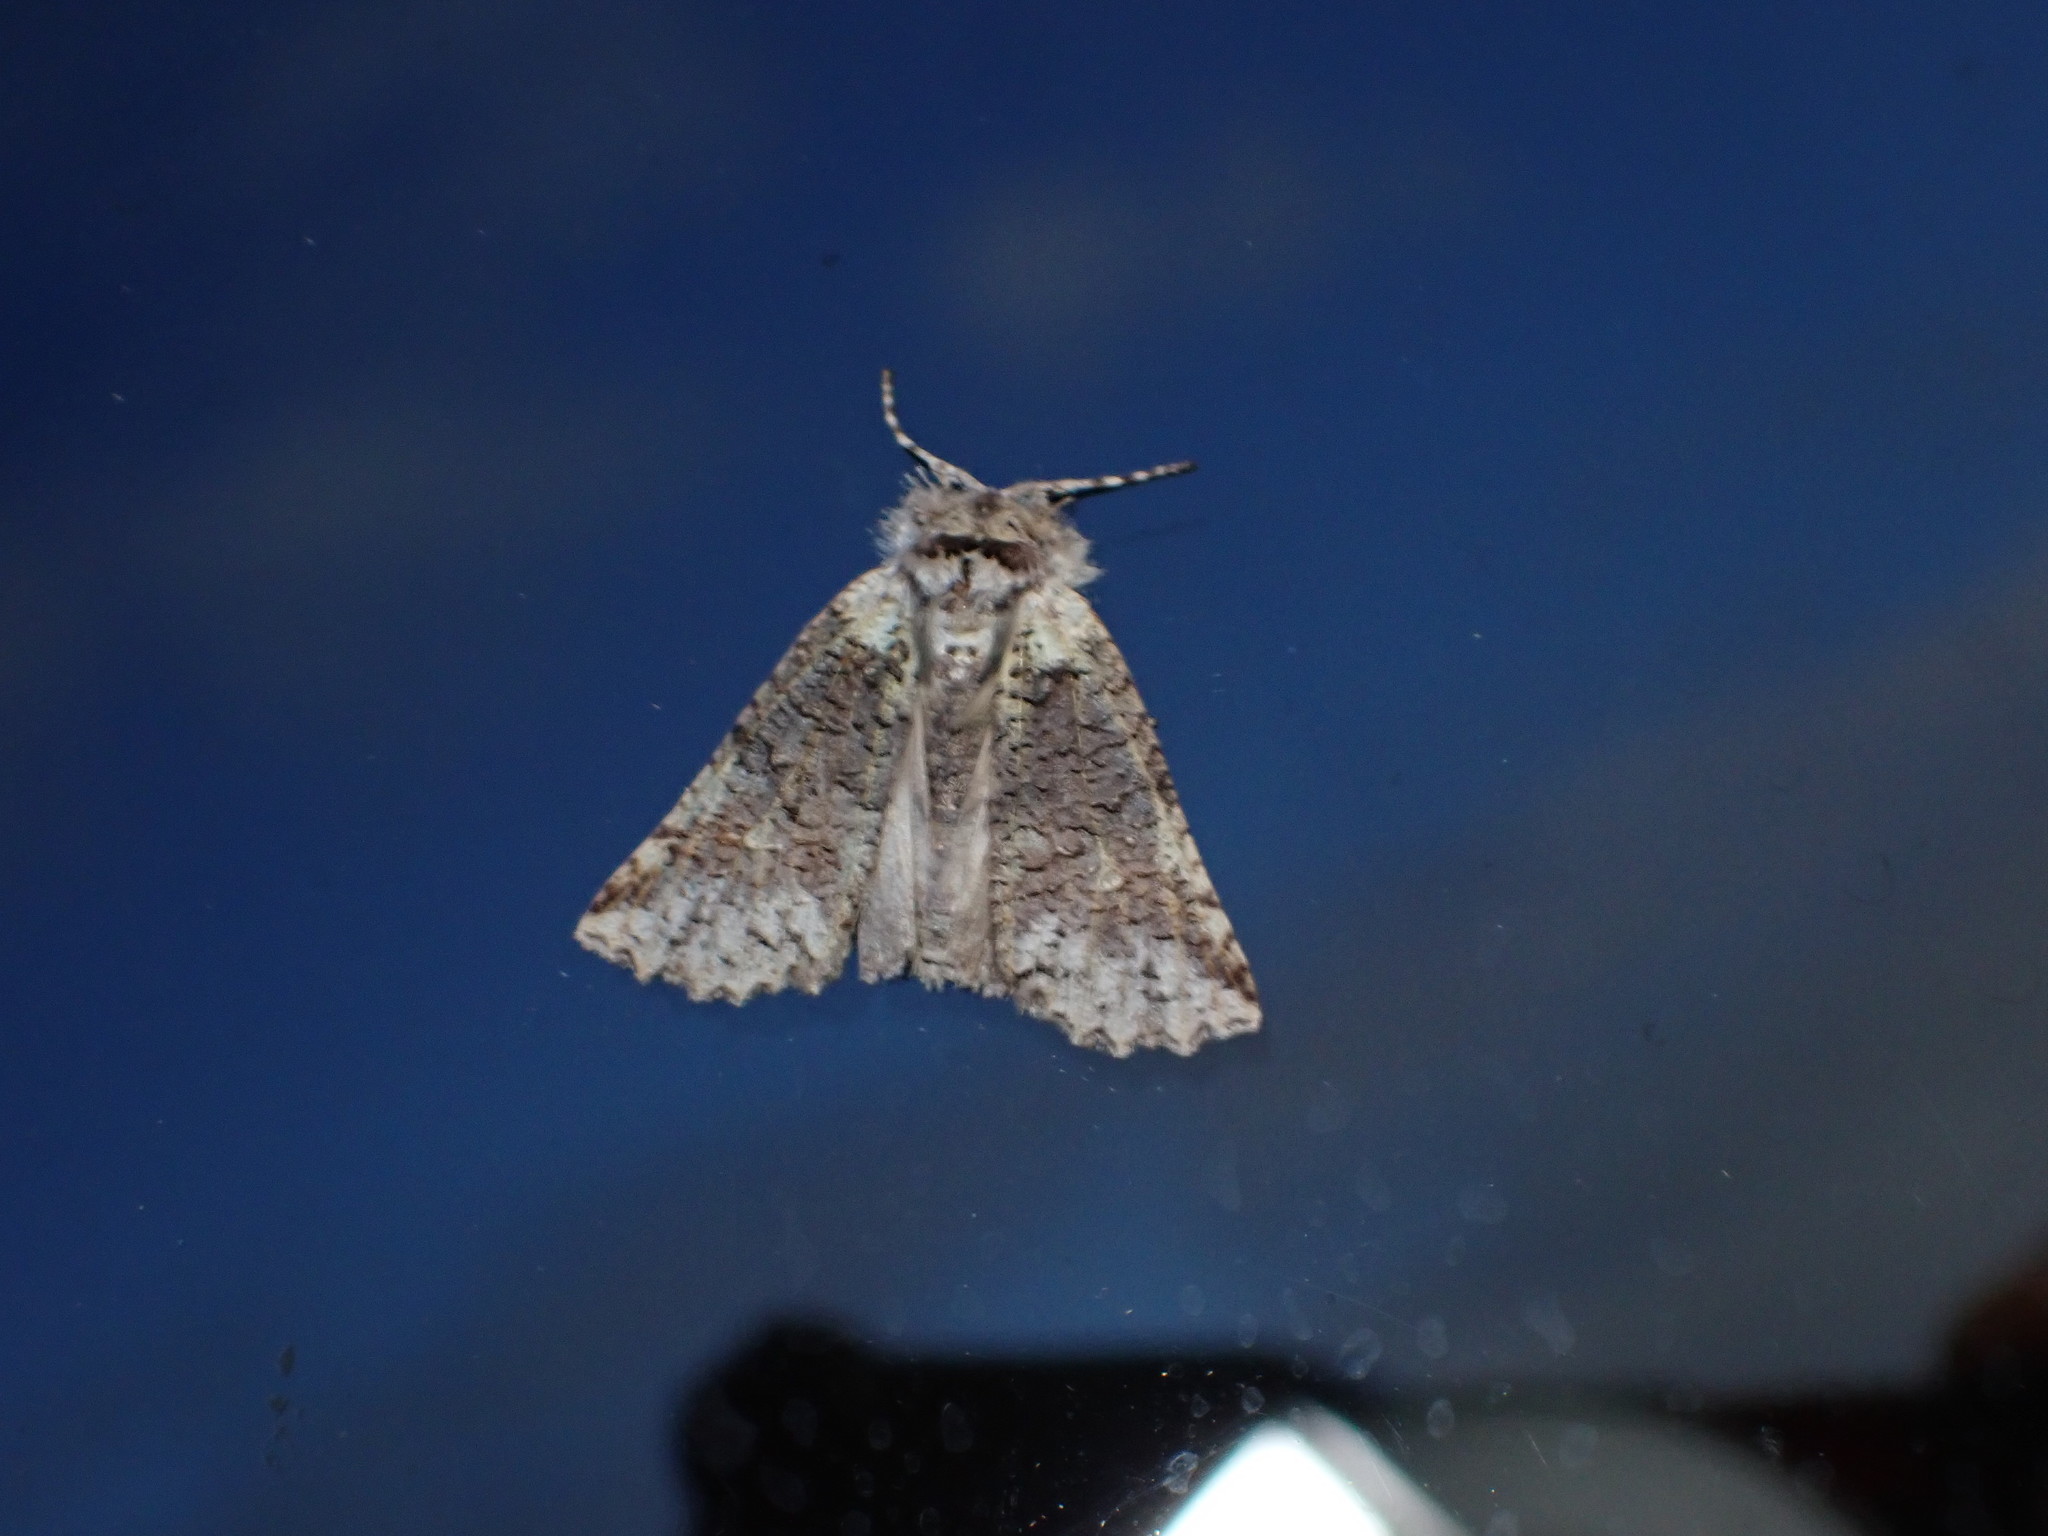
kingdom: Animalia
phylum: Arthropoda
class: Insecta
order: Lepidoptera
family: Geometridae
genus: Declana
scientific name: Declana floccosa
